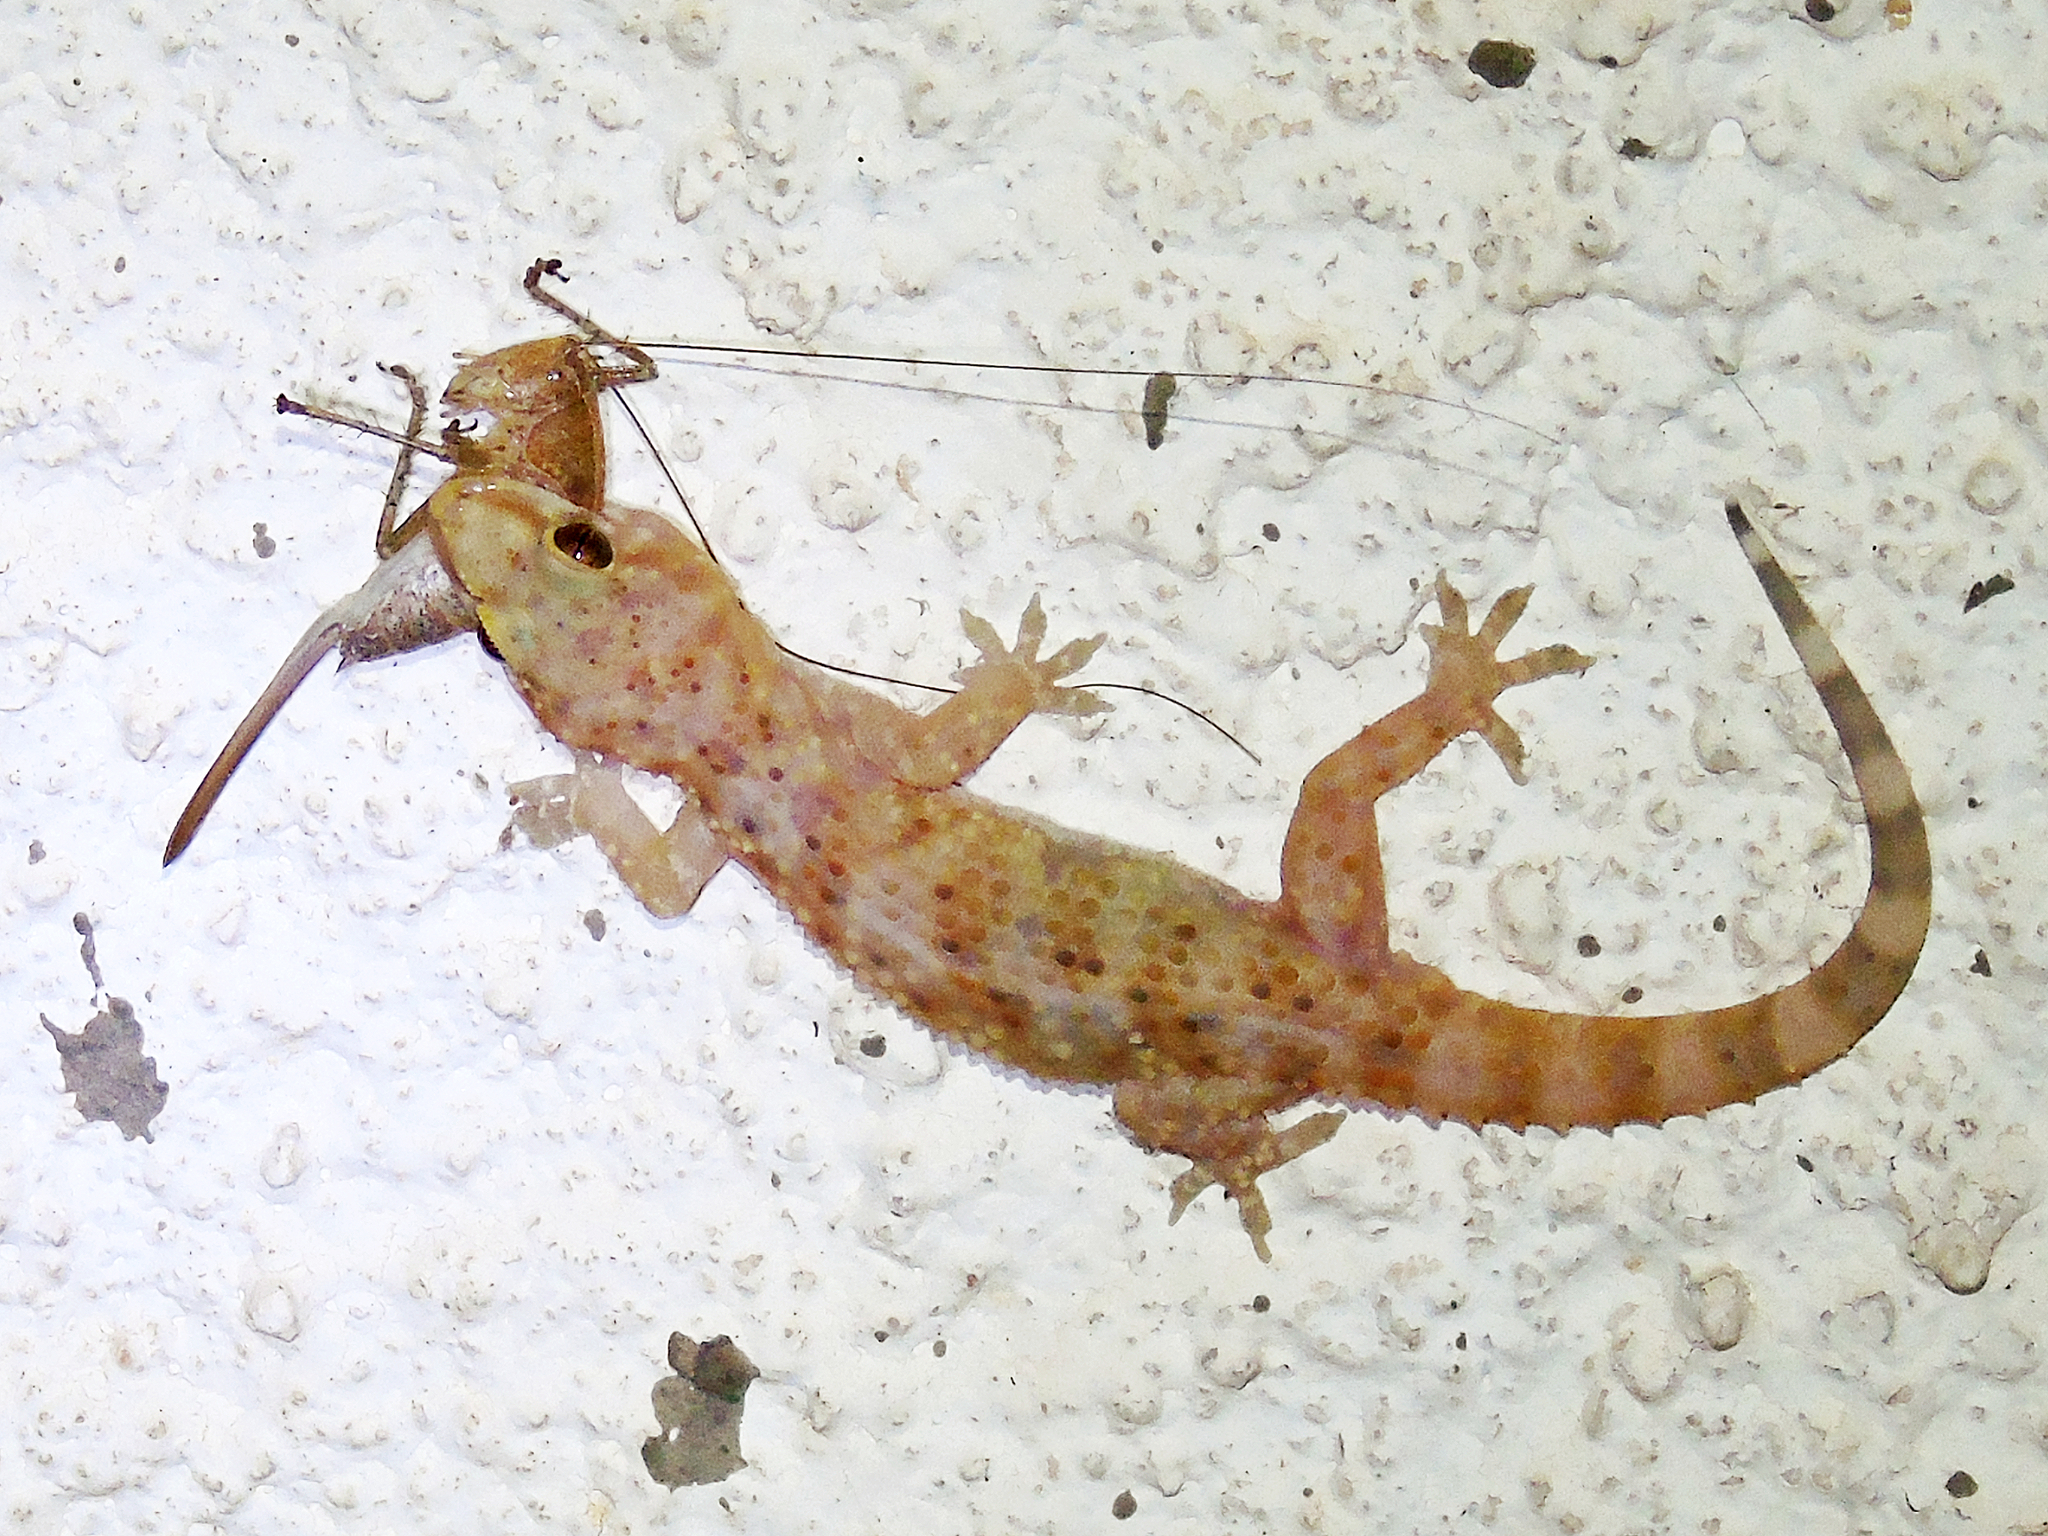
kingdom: Animalia
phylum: Chordata
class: Squamata
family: Gekkonidae
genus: Hemidactylus
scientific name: Hemidactylus turcicus
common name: Turkish gecko
